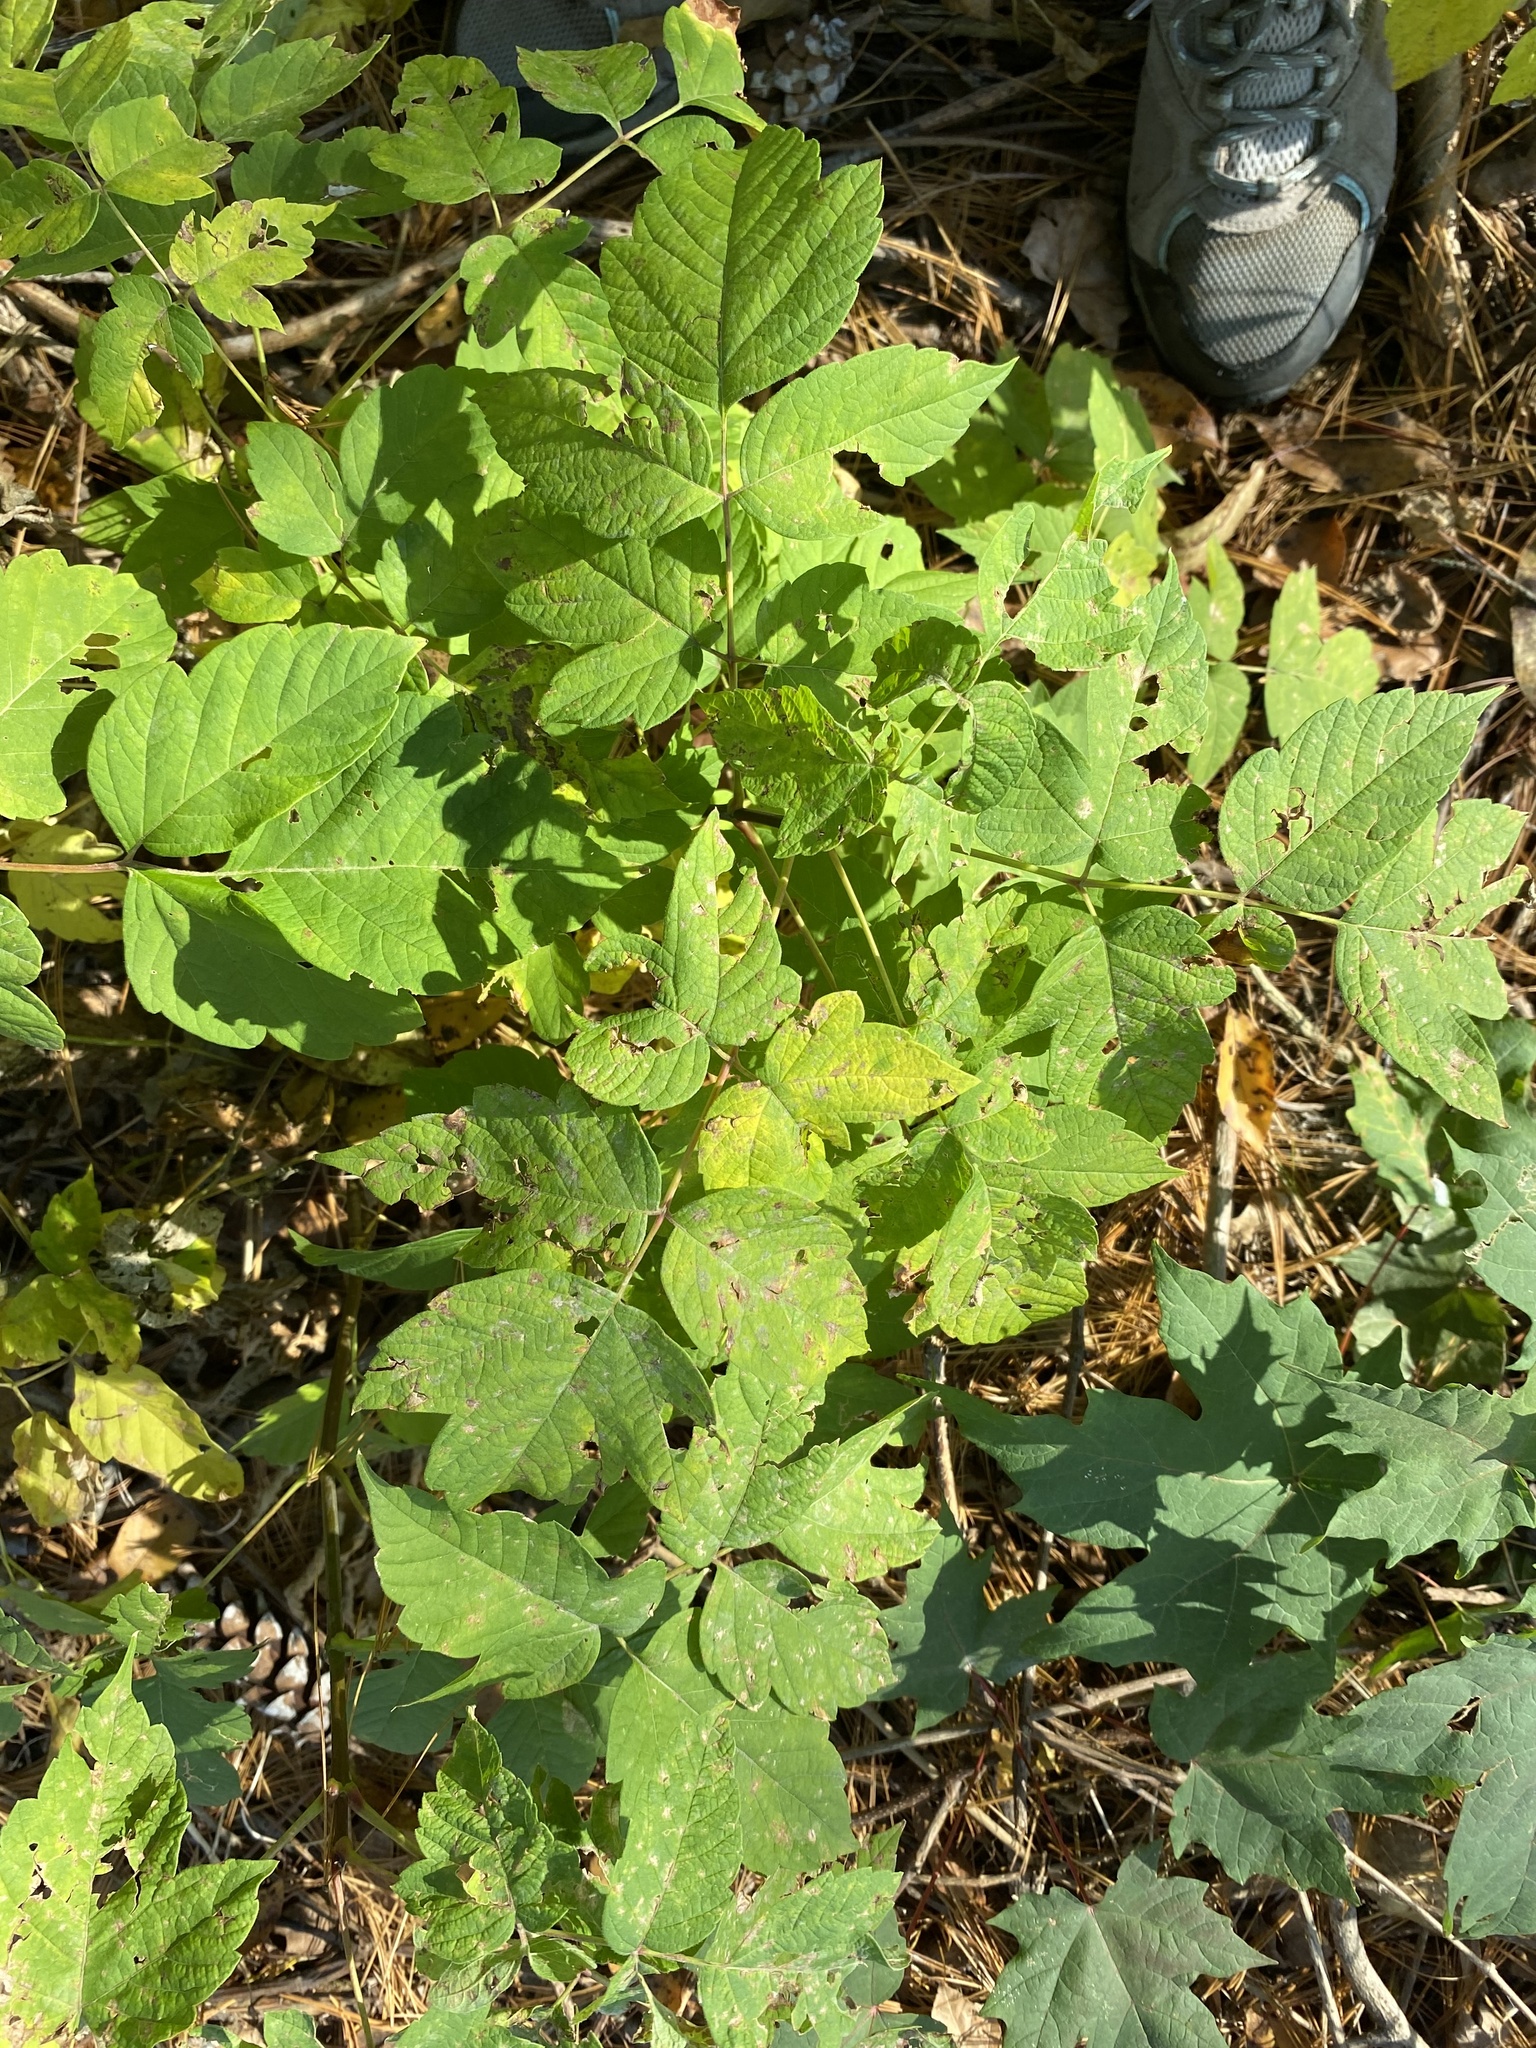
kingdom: Plantae
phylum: Tracheophyta
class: Magnoliopsida
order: Sapindales
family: Sapindaceae
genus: Acer
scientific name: Acer negundo
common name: Ashleaf maple
